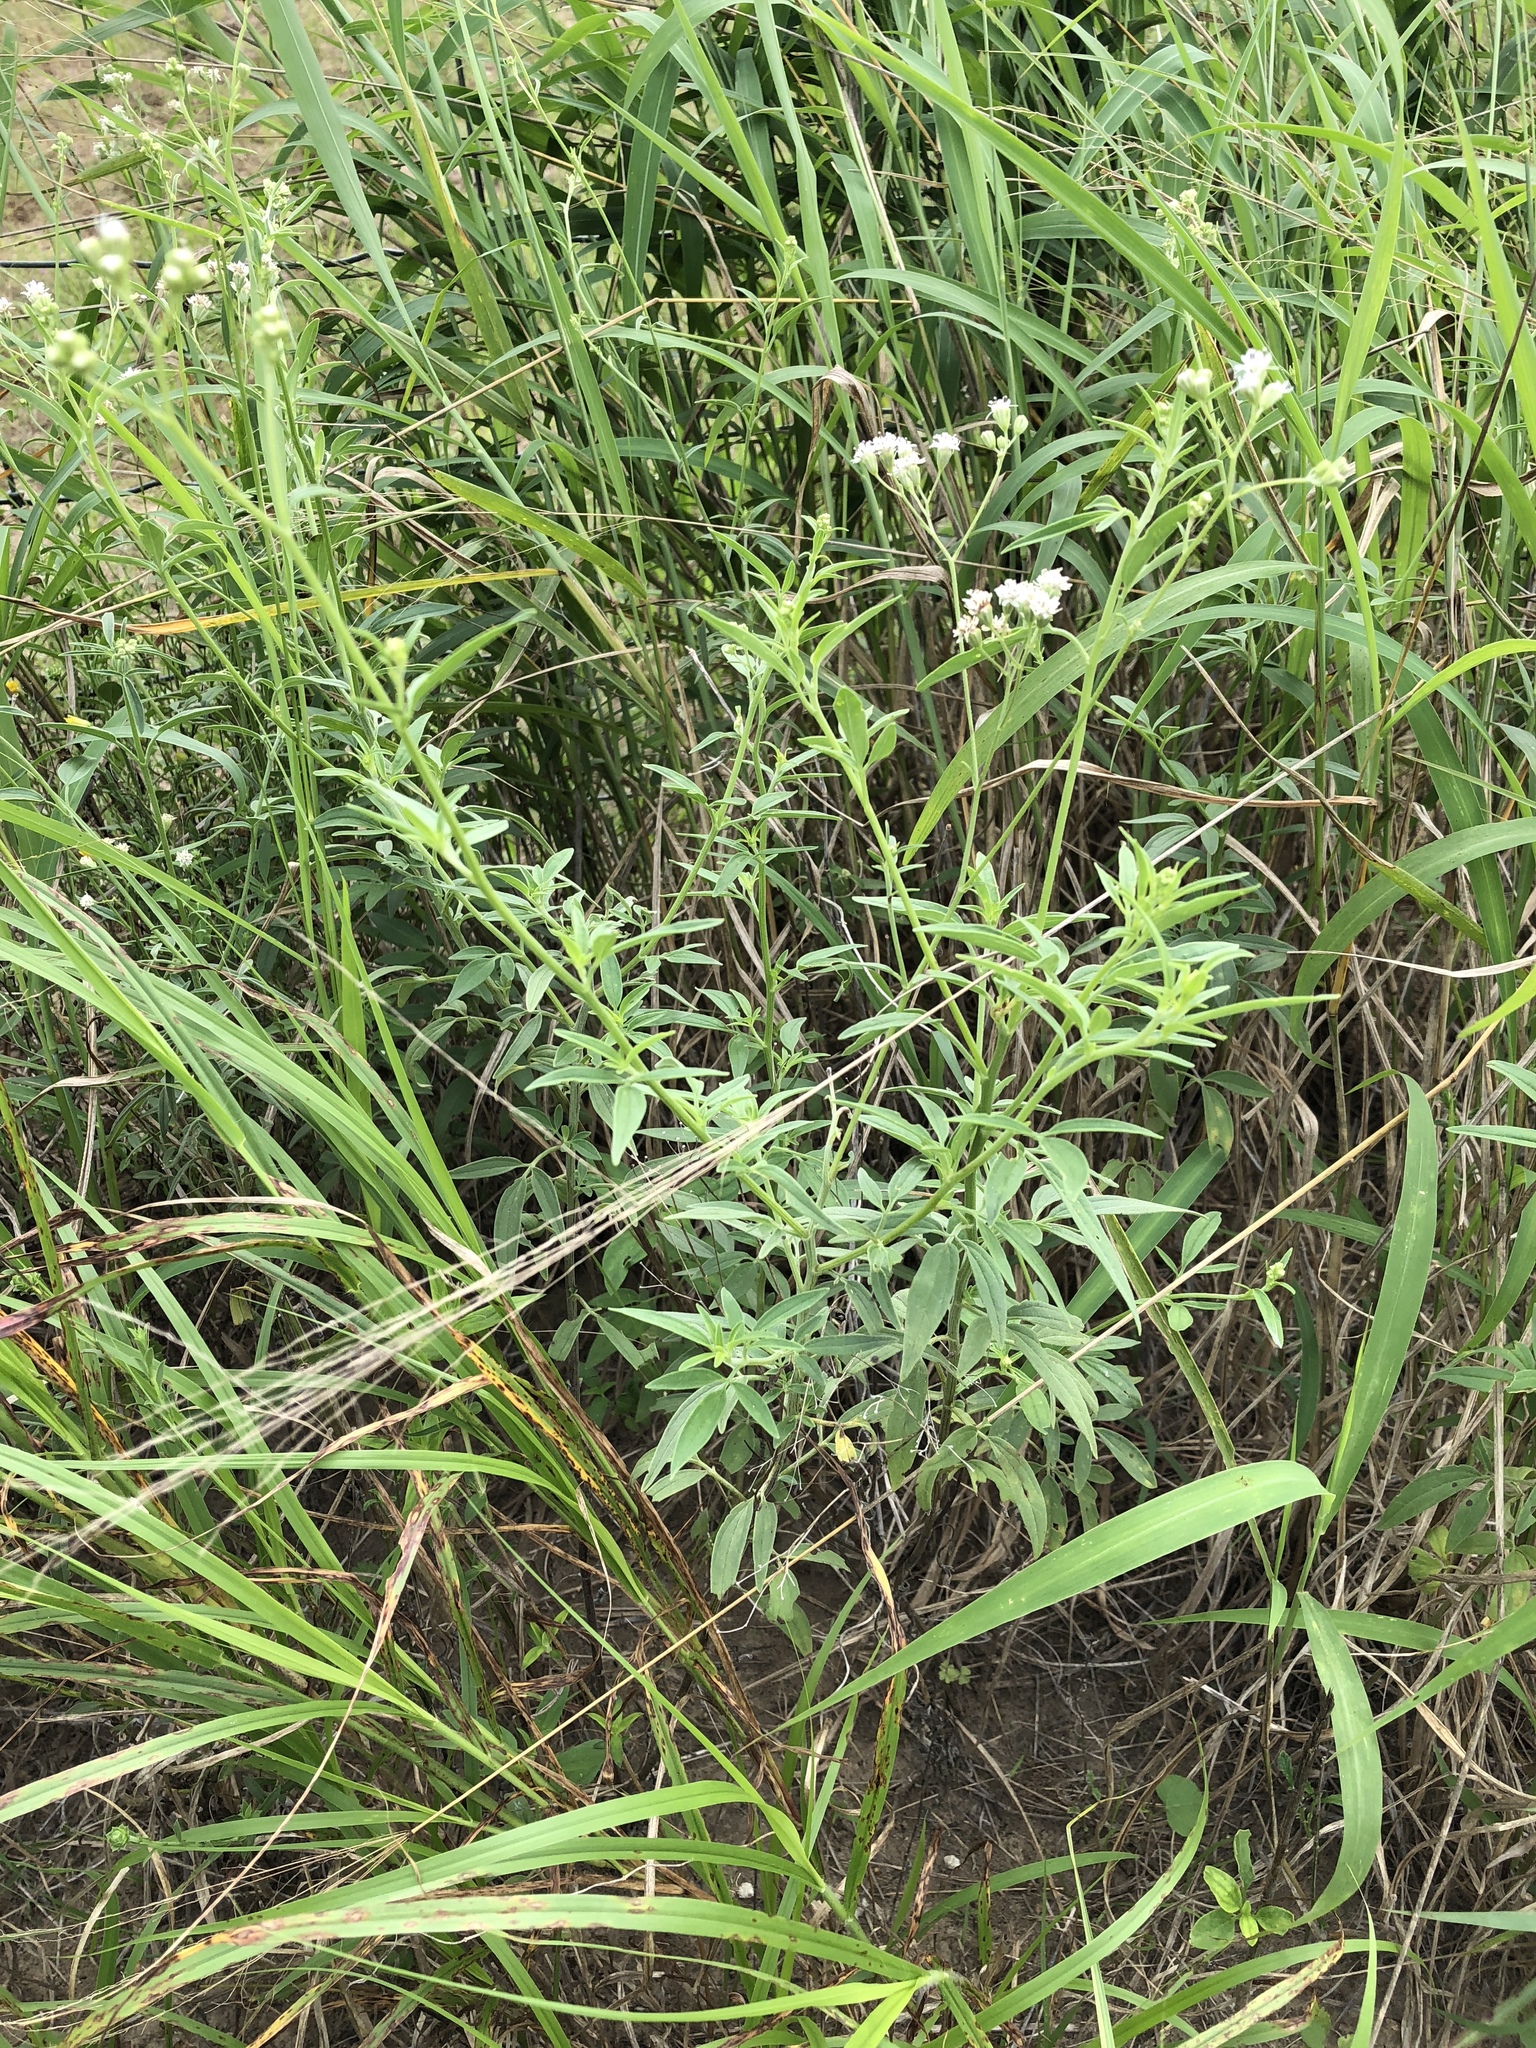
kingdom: Plantae
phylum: Tracheophyta
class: Magnoliopsida
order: Asterales
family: Asteraceae
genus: Florestina
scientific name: Florestina tripteris
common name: Sticky florestina
